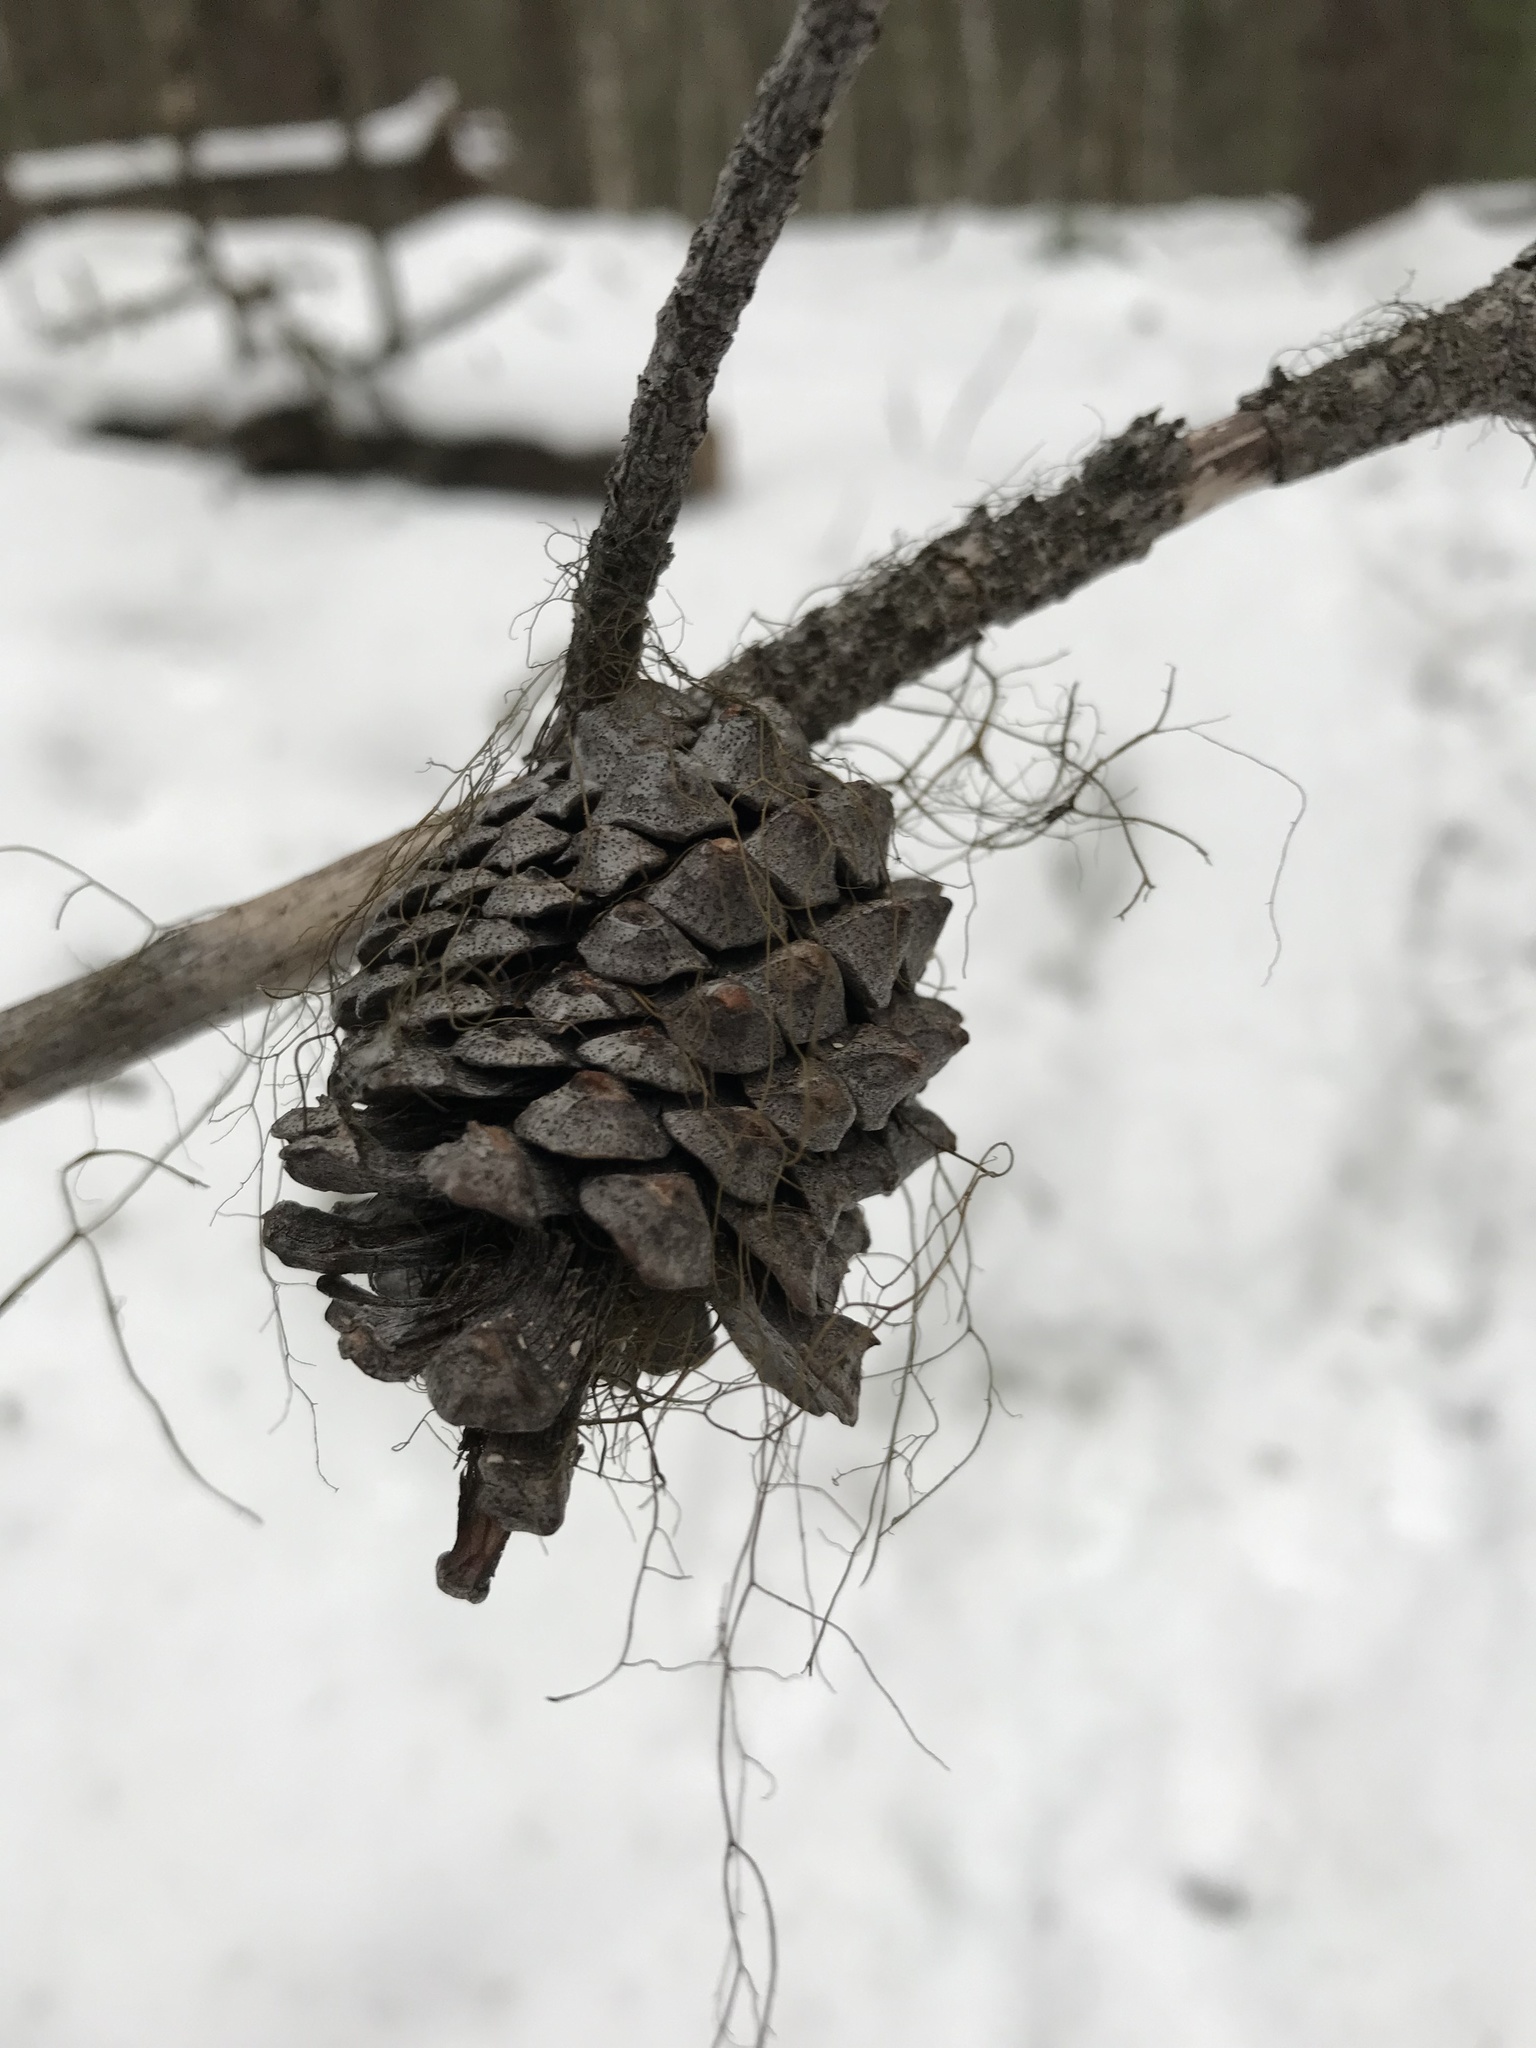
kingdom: Plantae
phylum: Tracheophyta
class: Pinopsida
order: Pinales
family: Pinaceae
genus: Pinus
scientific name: Pinus contorta
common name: Lodgepole pine
